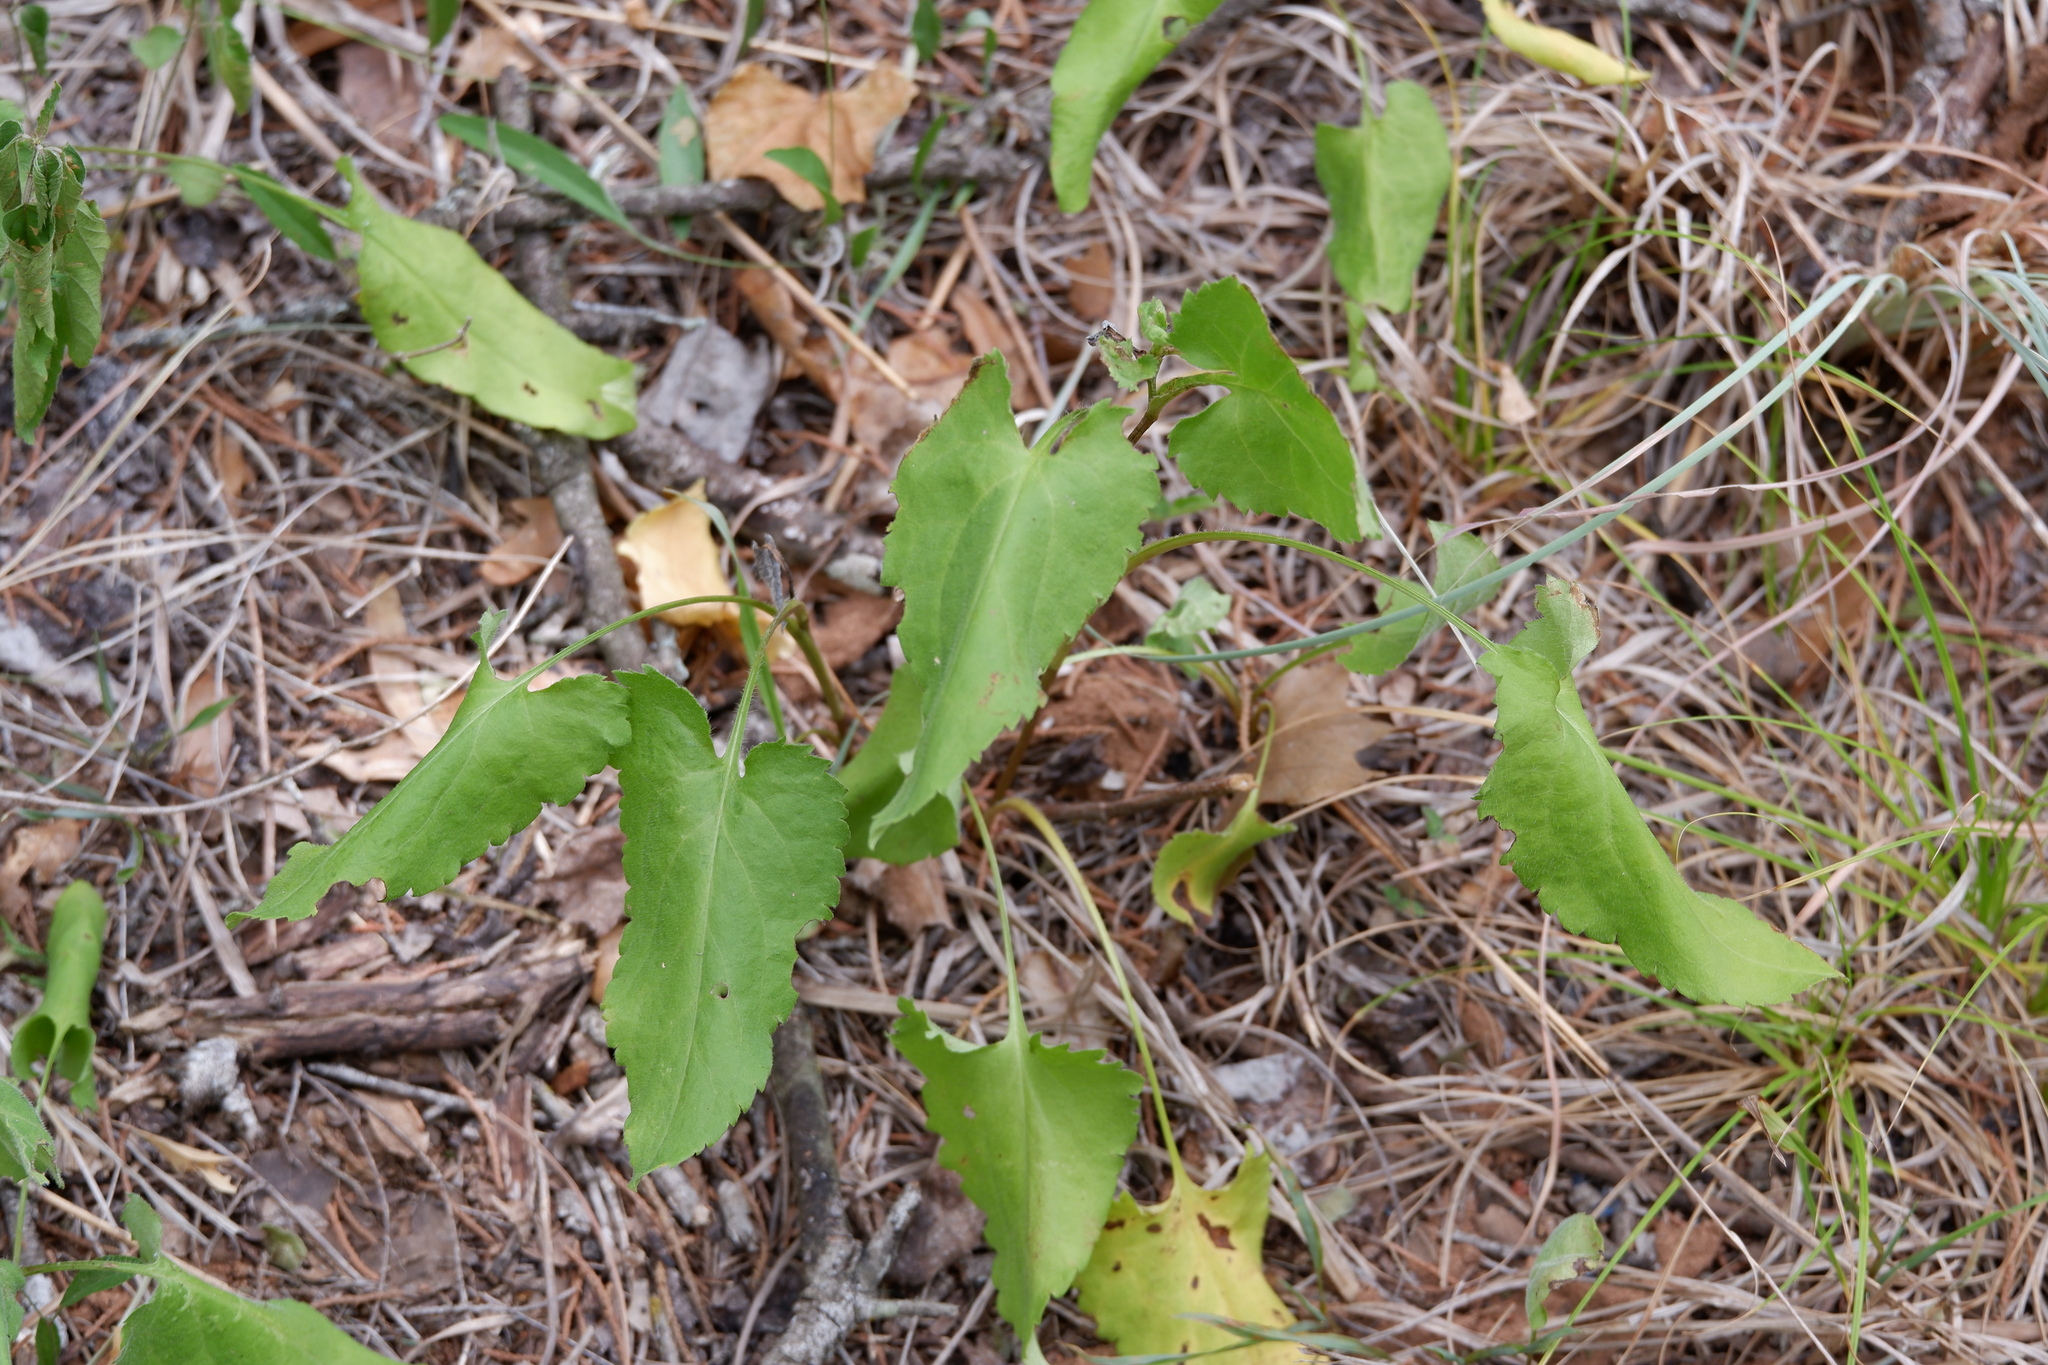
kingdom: Plantae
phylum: Tracheophyta
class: Magnoliopsida
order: Asterales
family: Asteraceae
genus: Symphyotrichum
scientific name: Symphyotrichum drummondii
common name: Drummond's aster
